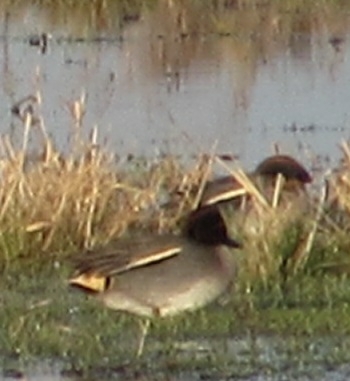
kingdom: Animalia
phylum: Chordata
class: Aves
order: Anseriformes
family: Anatidae
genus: Anas
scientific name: Anas crecca
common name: Eurasian teal
